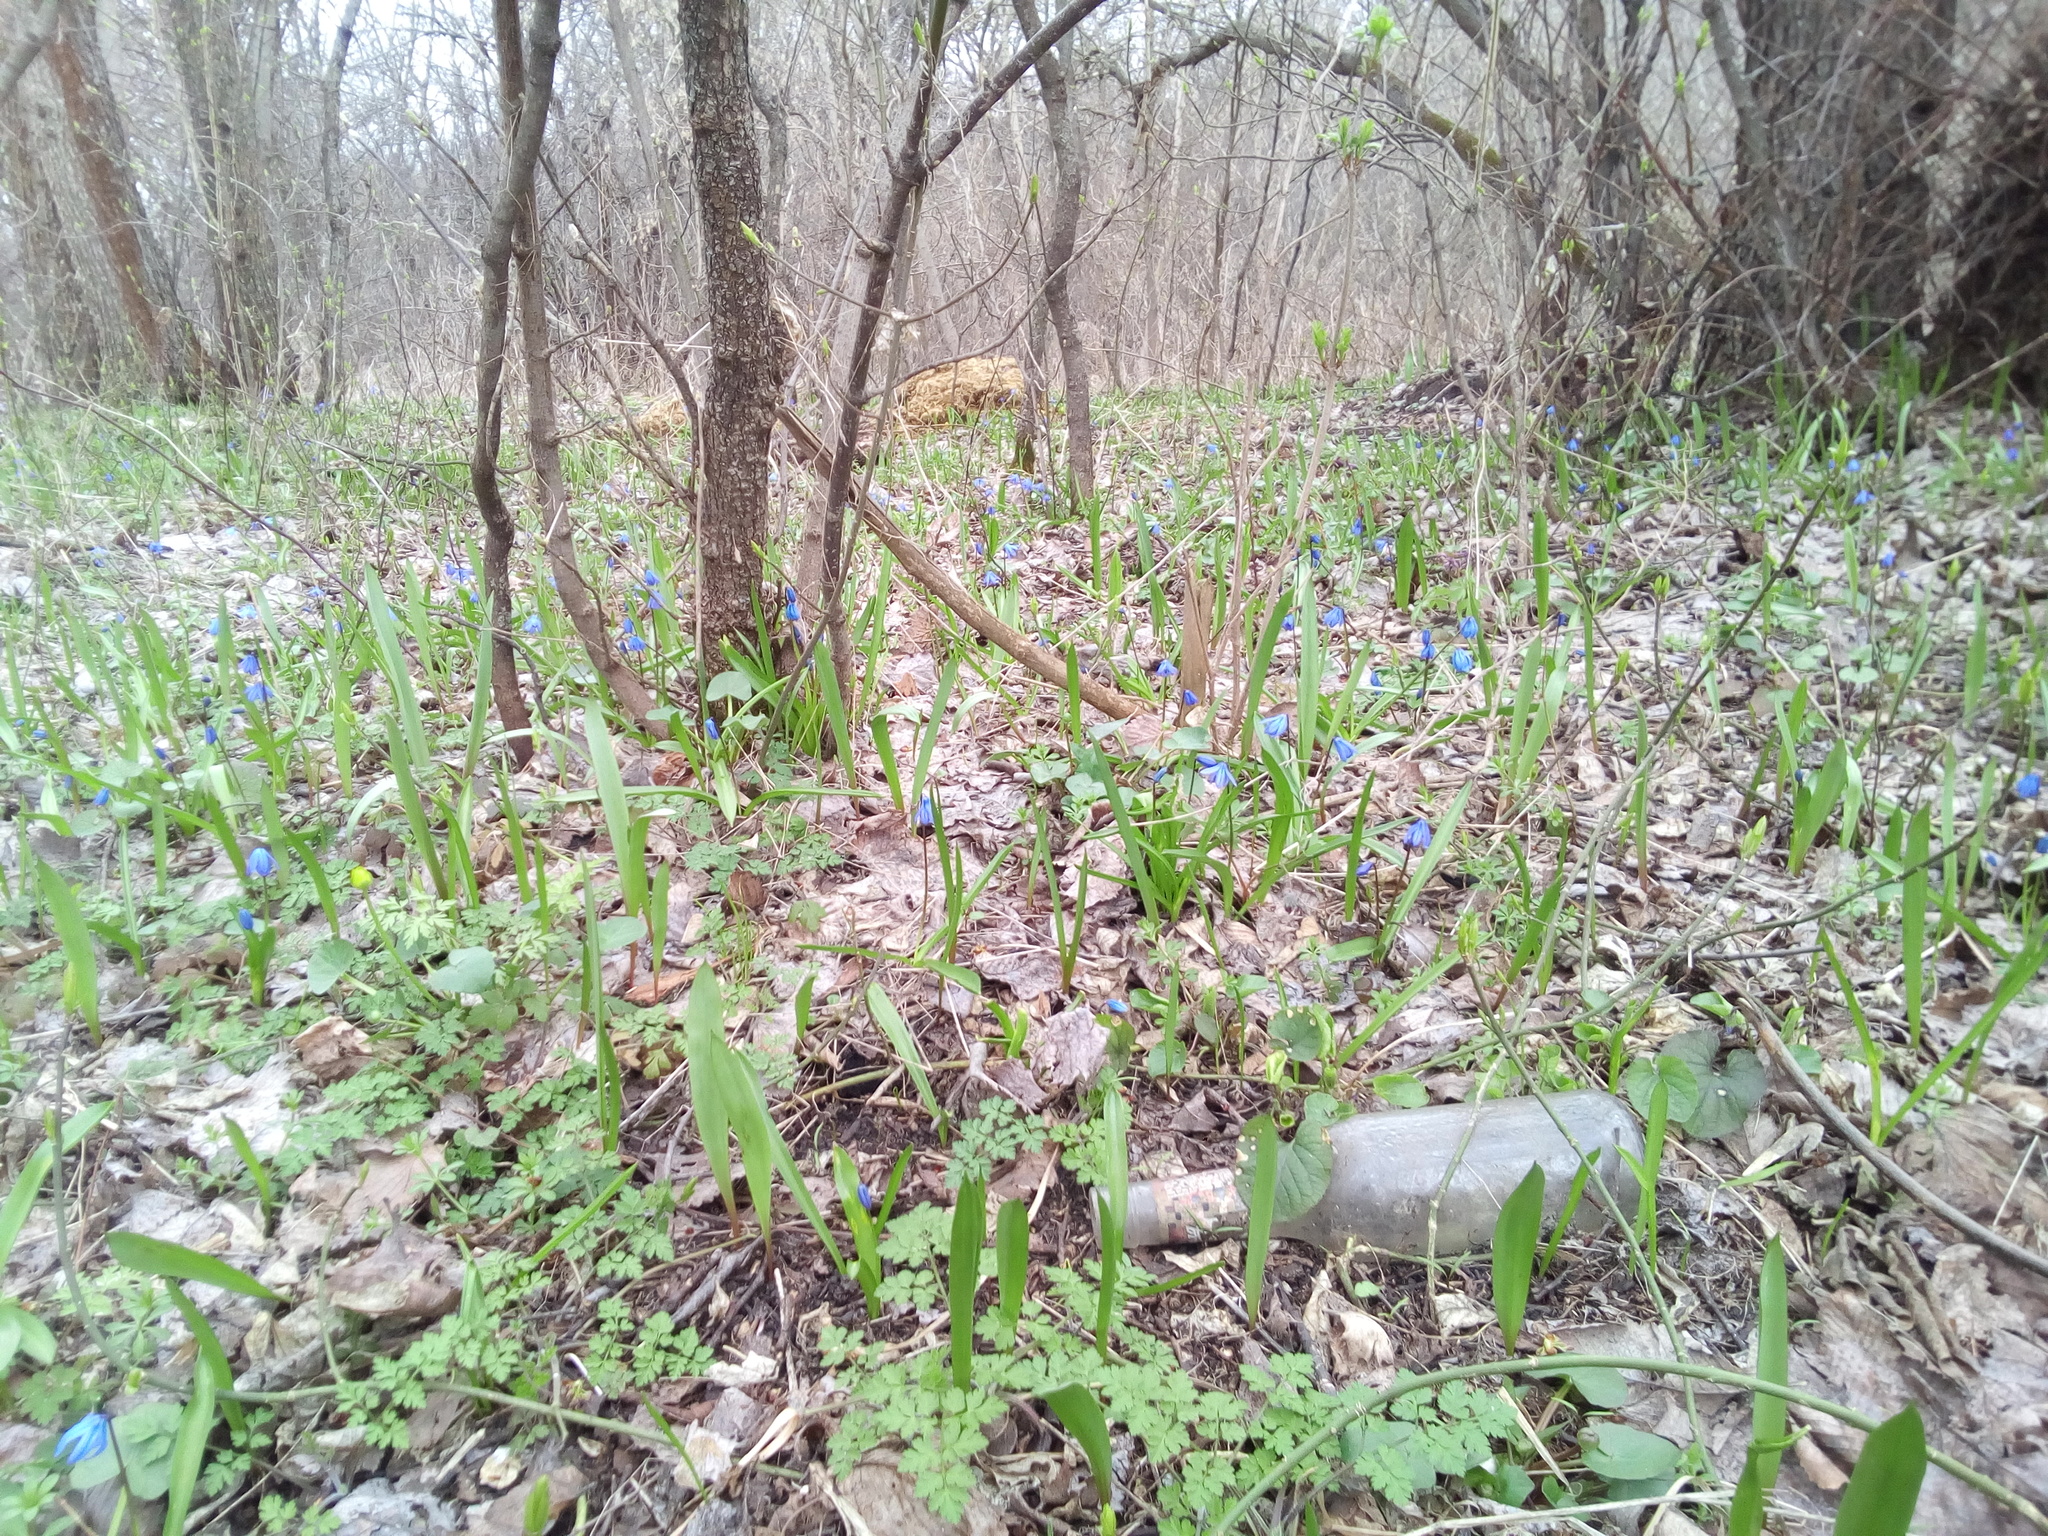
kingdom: Plantae
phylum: Tracheophyta
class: Liliopsida
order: Asparagales
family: Asparagaceae
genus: Scilla
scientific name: Scilla siberica
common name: Siberian squill
